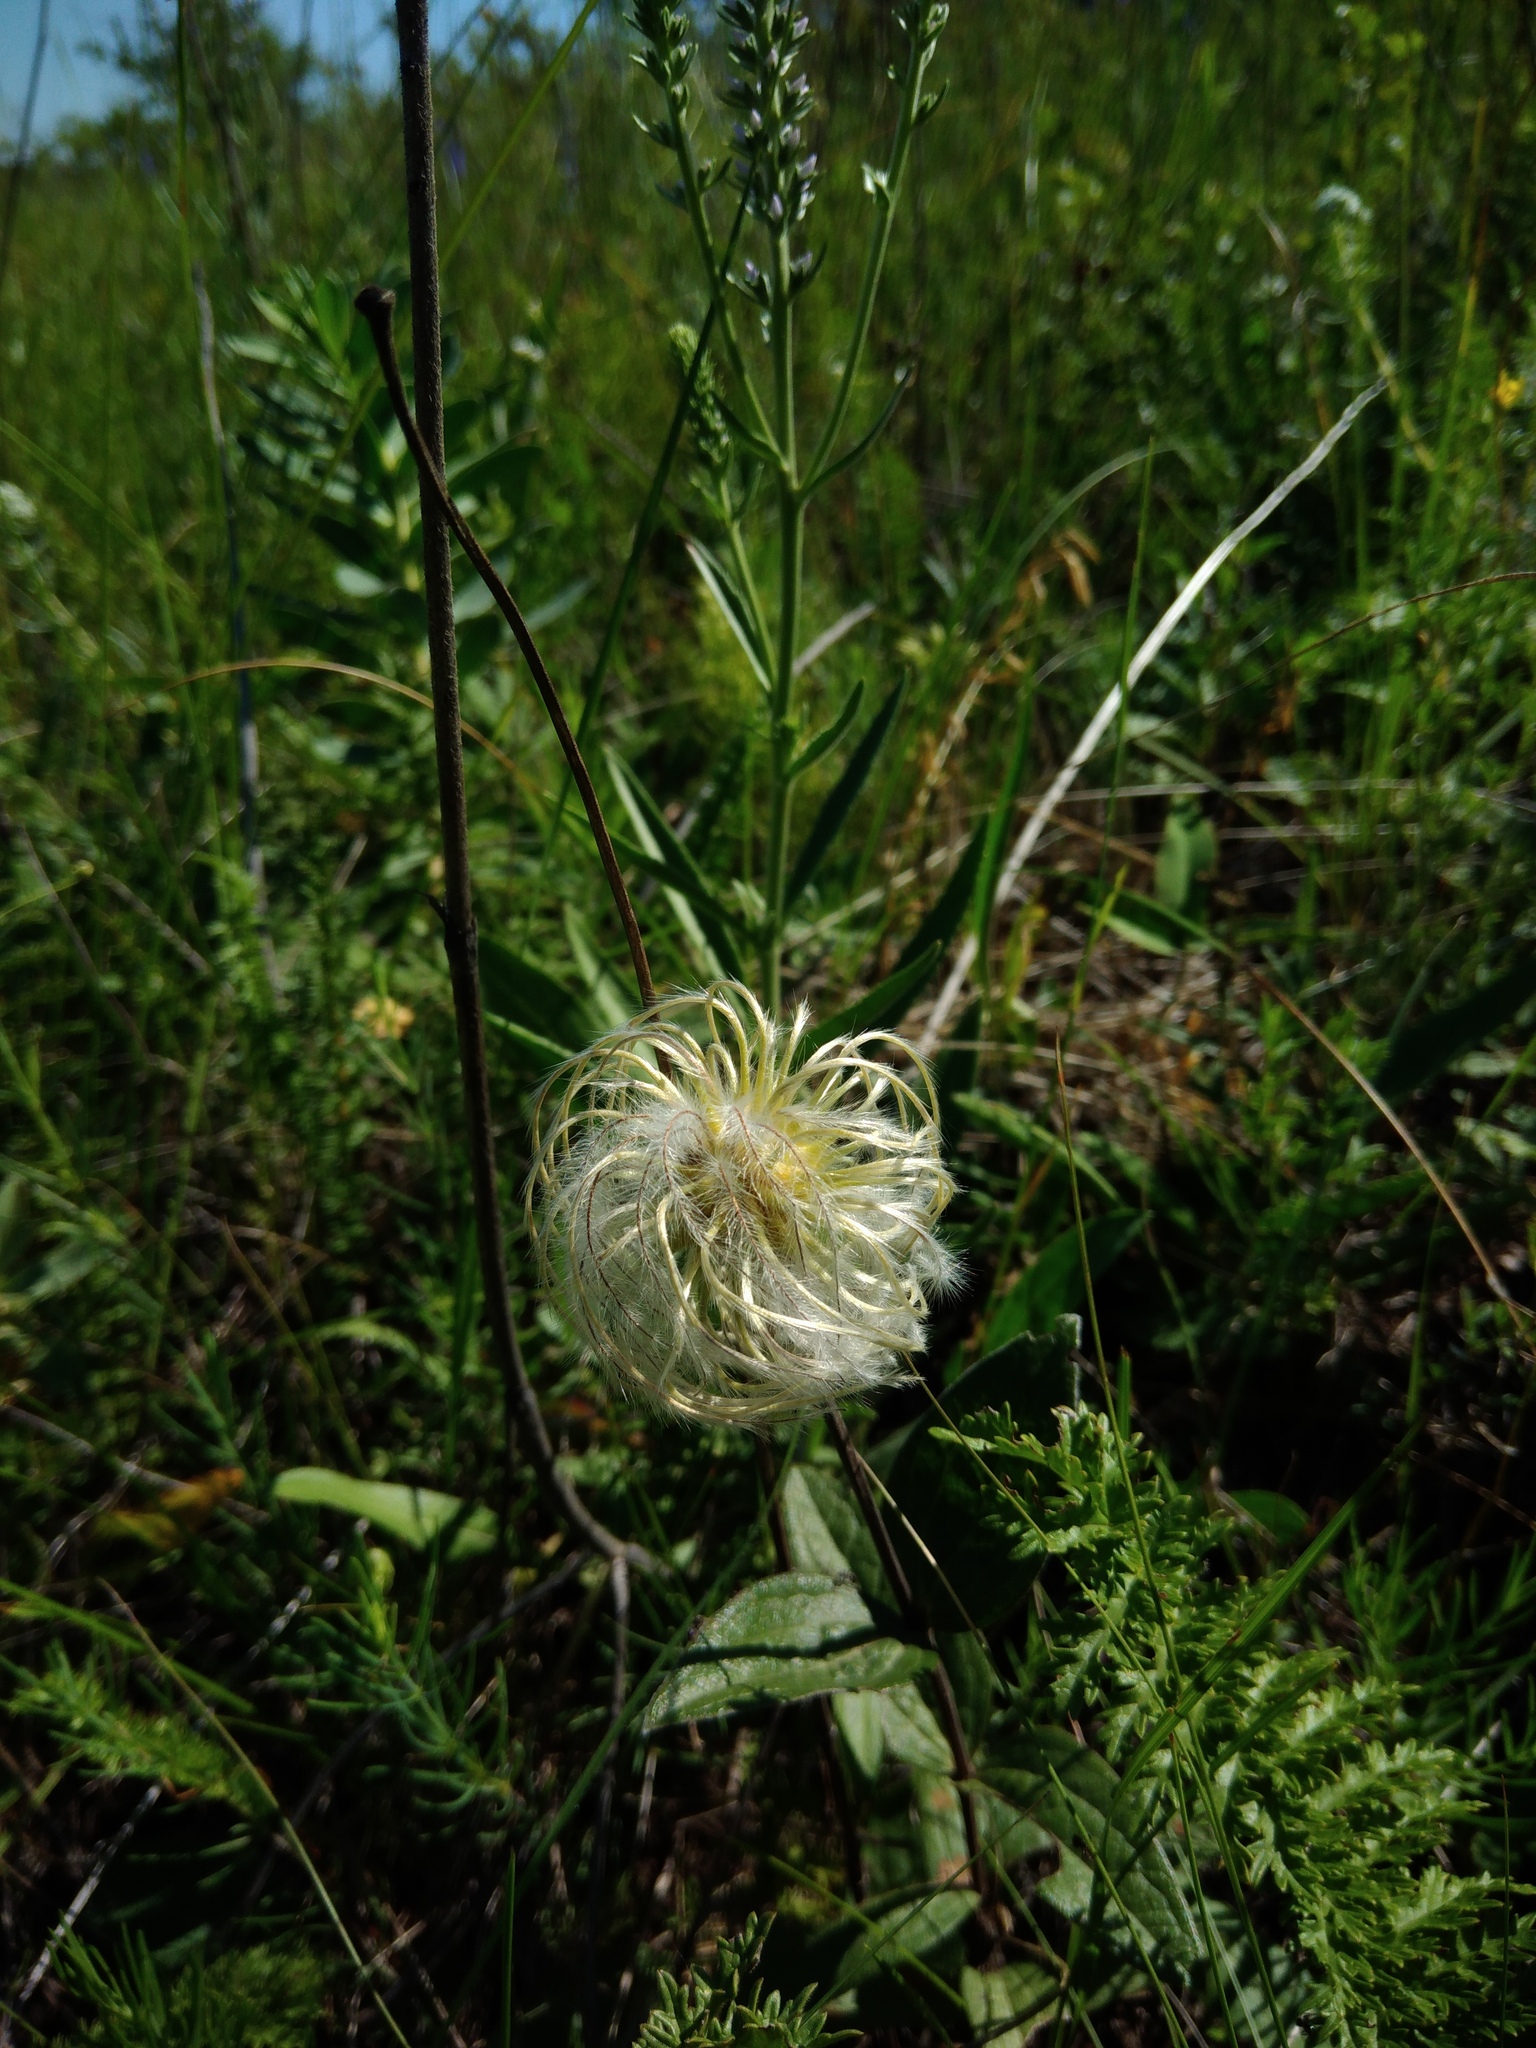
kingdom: Plantae
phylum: Tracheophyta
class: Magnoliopsida
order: Ranunculales
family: Ranunculaceae
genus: Clematis
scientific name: Clematis integrifolia
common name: Solitary clematis
